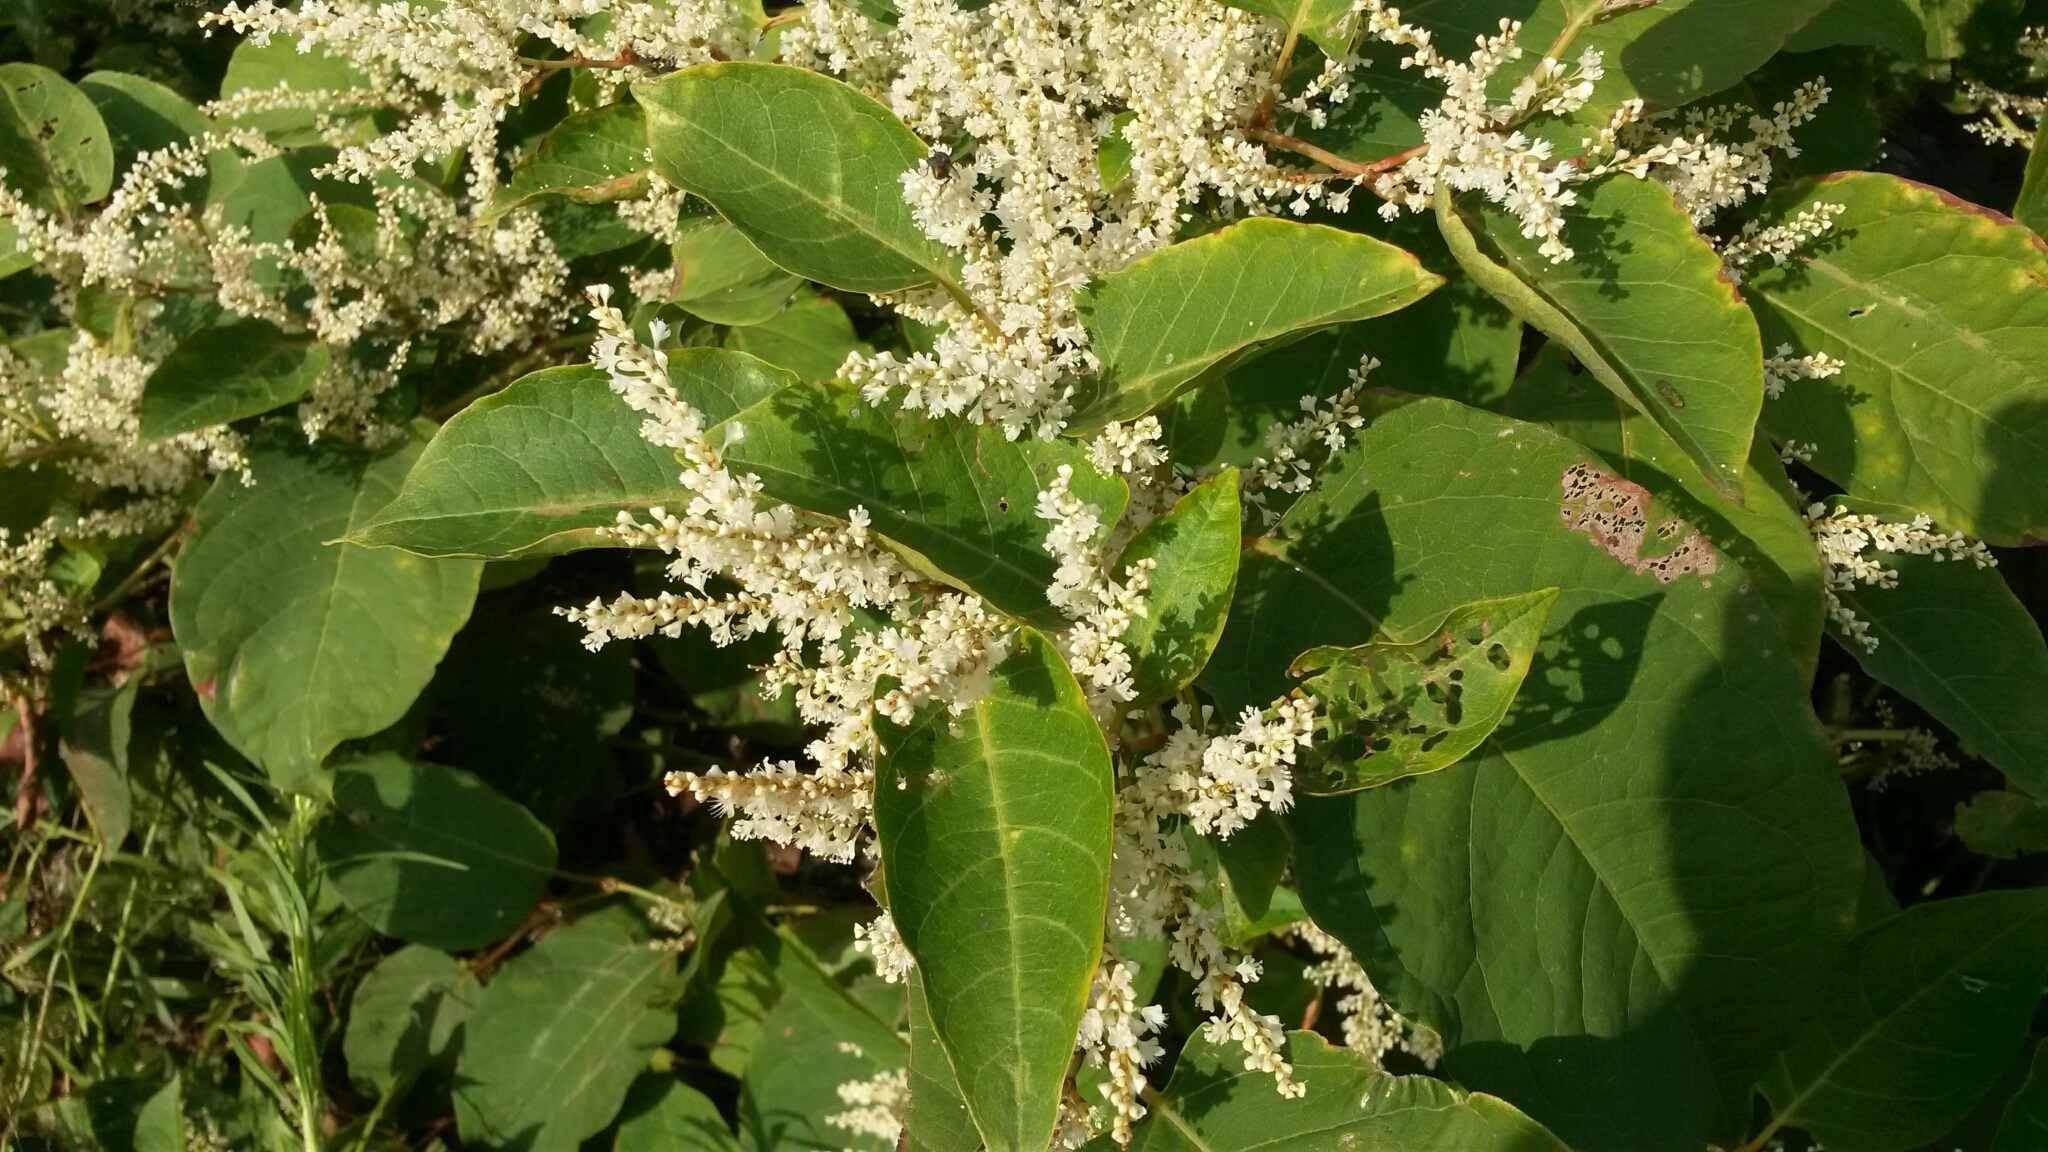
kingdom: Plantae
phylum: Tracheophyta
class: Magnoliopsida
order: Caryophyllales
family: Polygonaceae
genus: Reynoutria
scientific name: Reynoutria japonica
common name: Japanese knotweed
